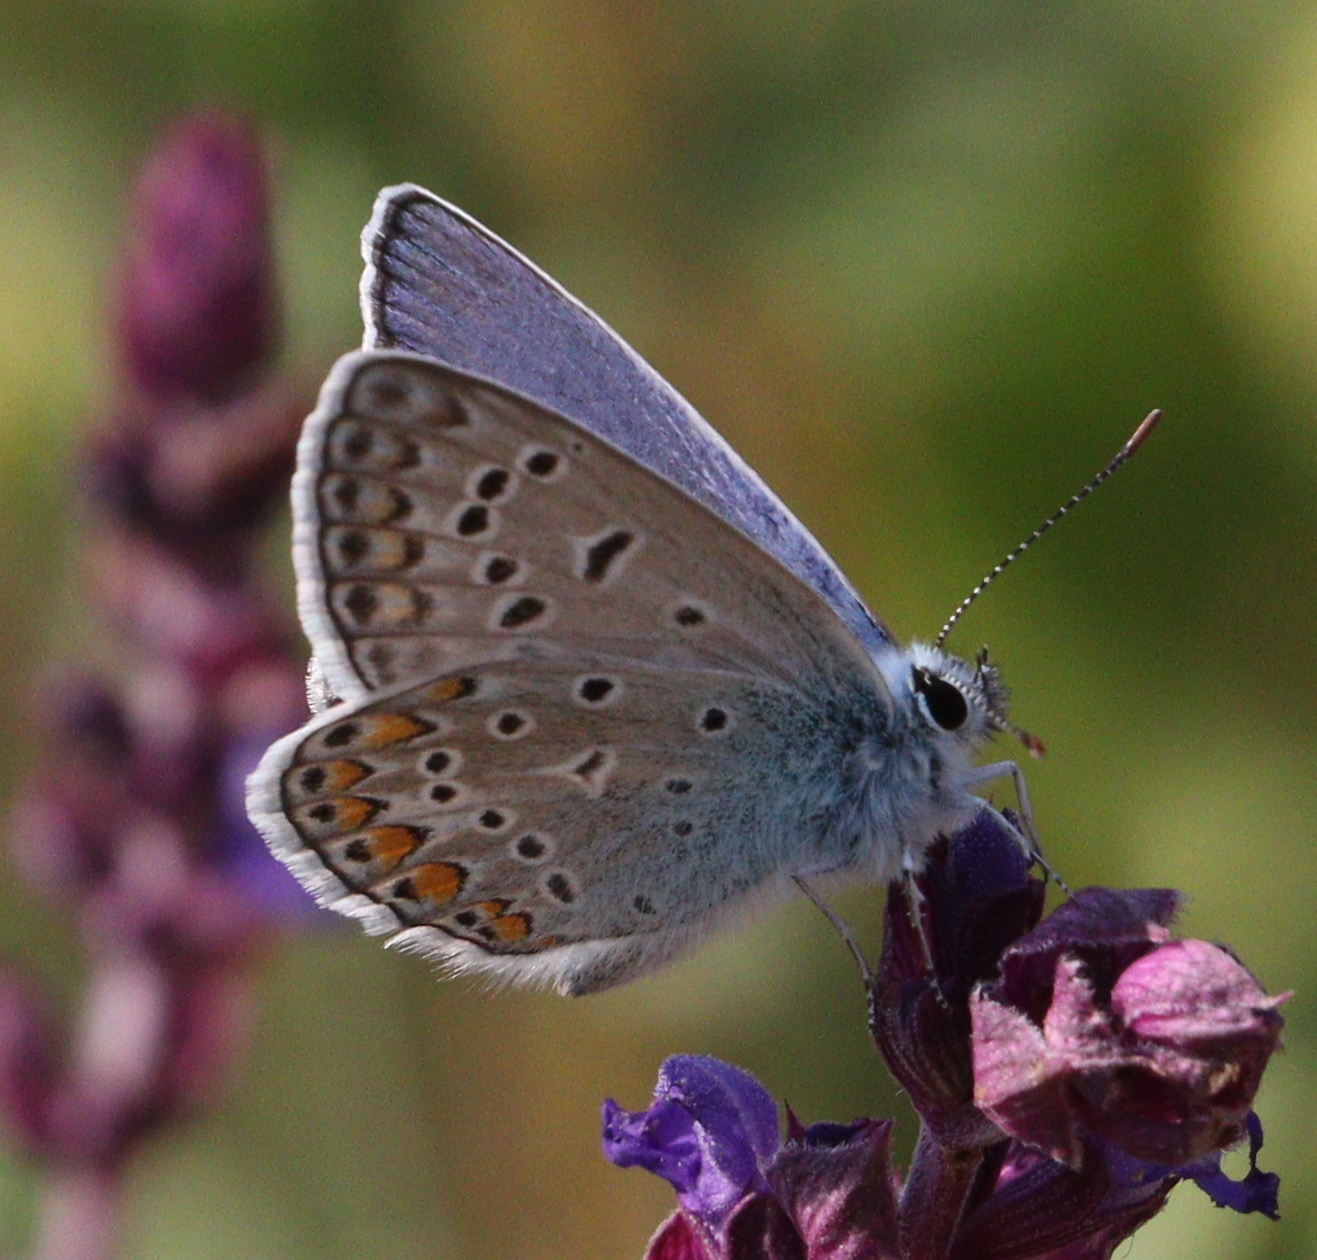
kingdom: Animalia
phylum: Arthropoda
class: Insecta
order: Lepidoptera
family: Lycaenidae
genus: Polyommatus
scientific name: Polyommatus icarus
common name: Common blue
